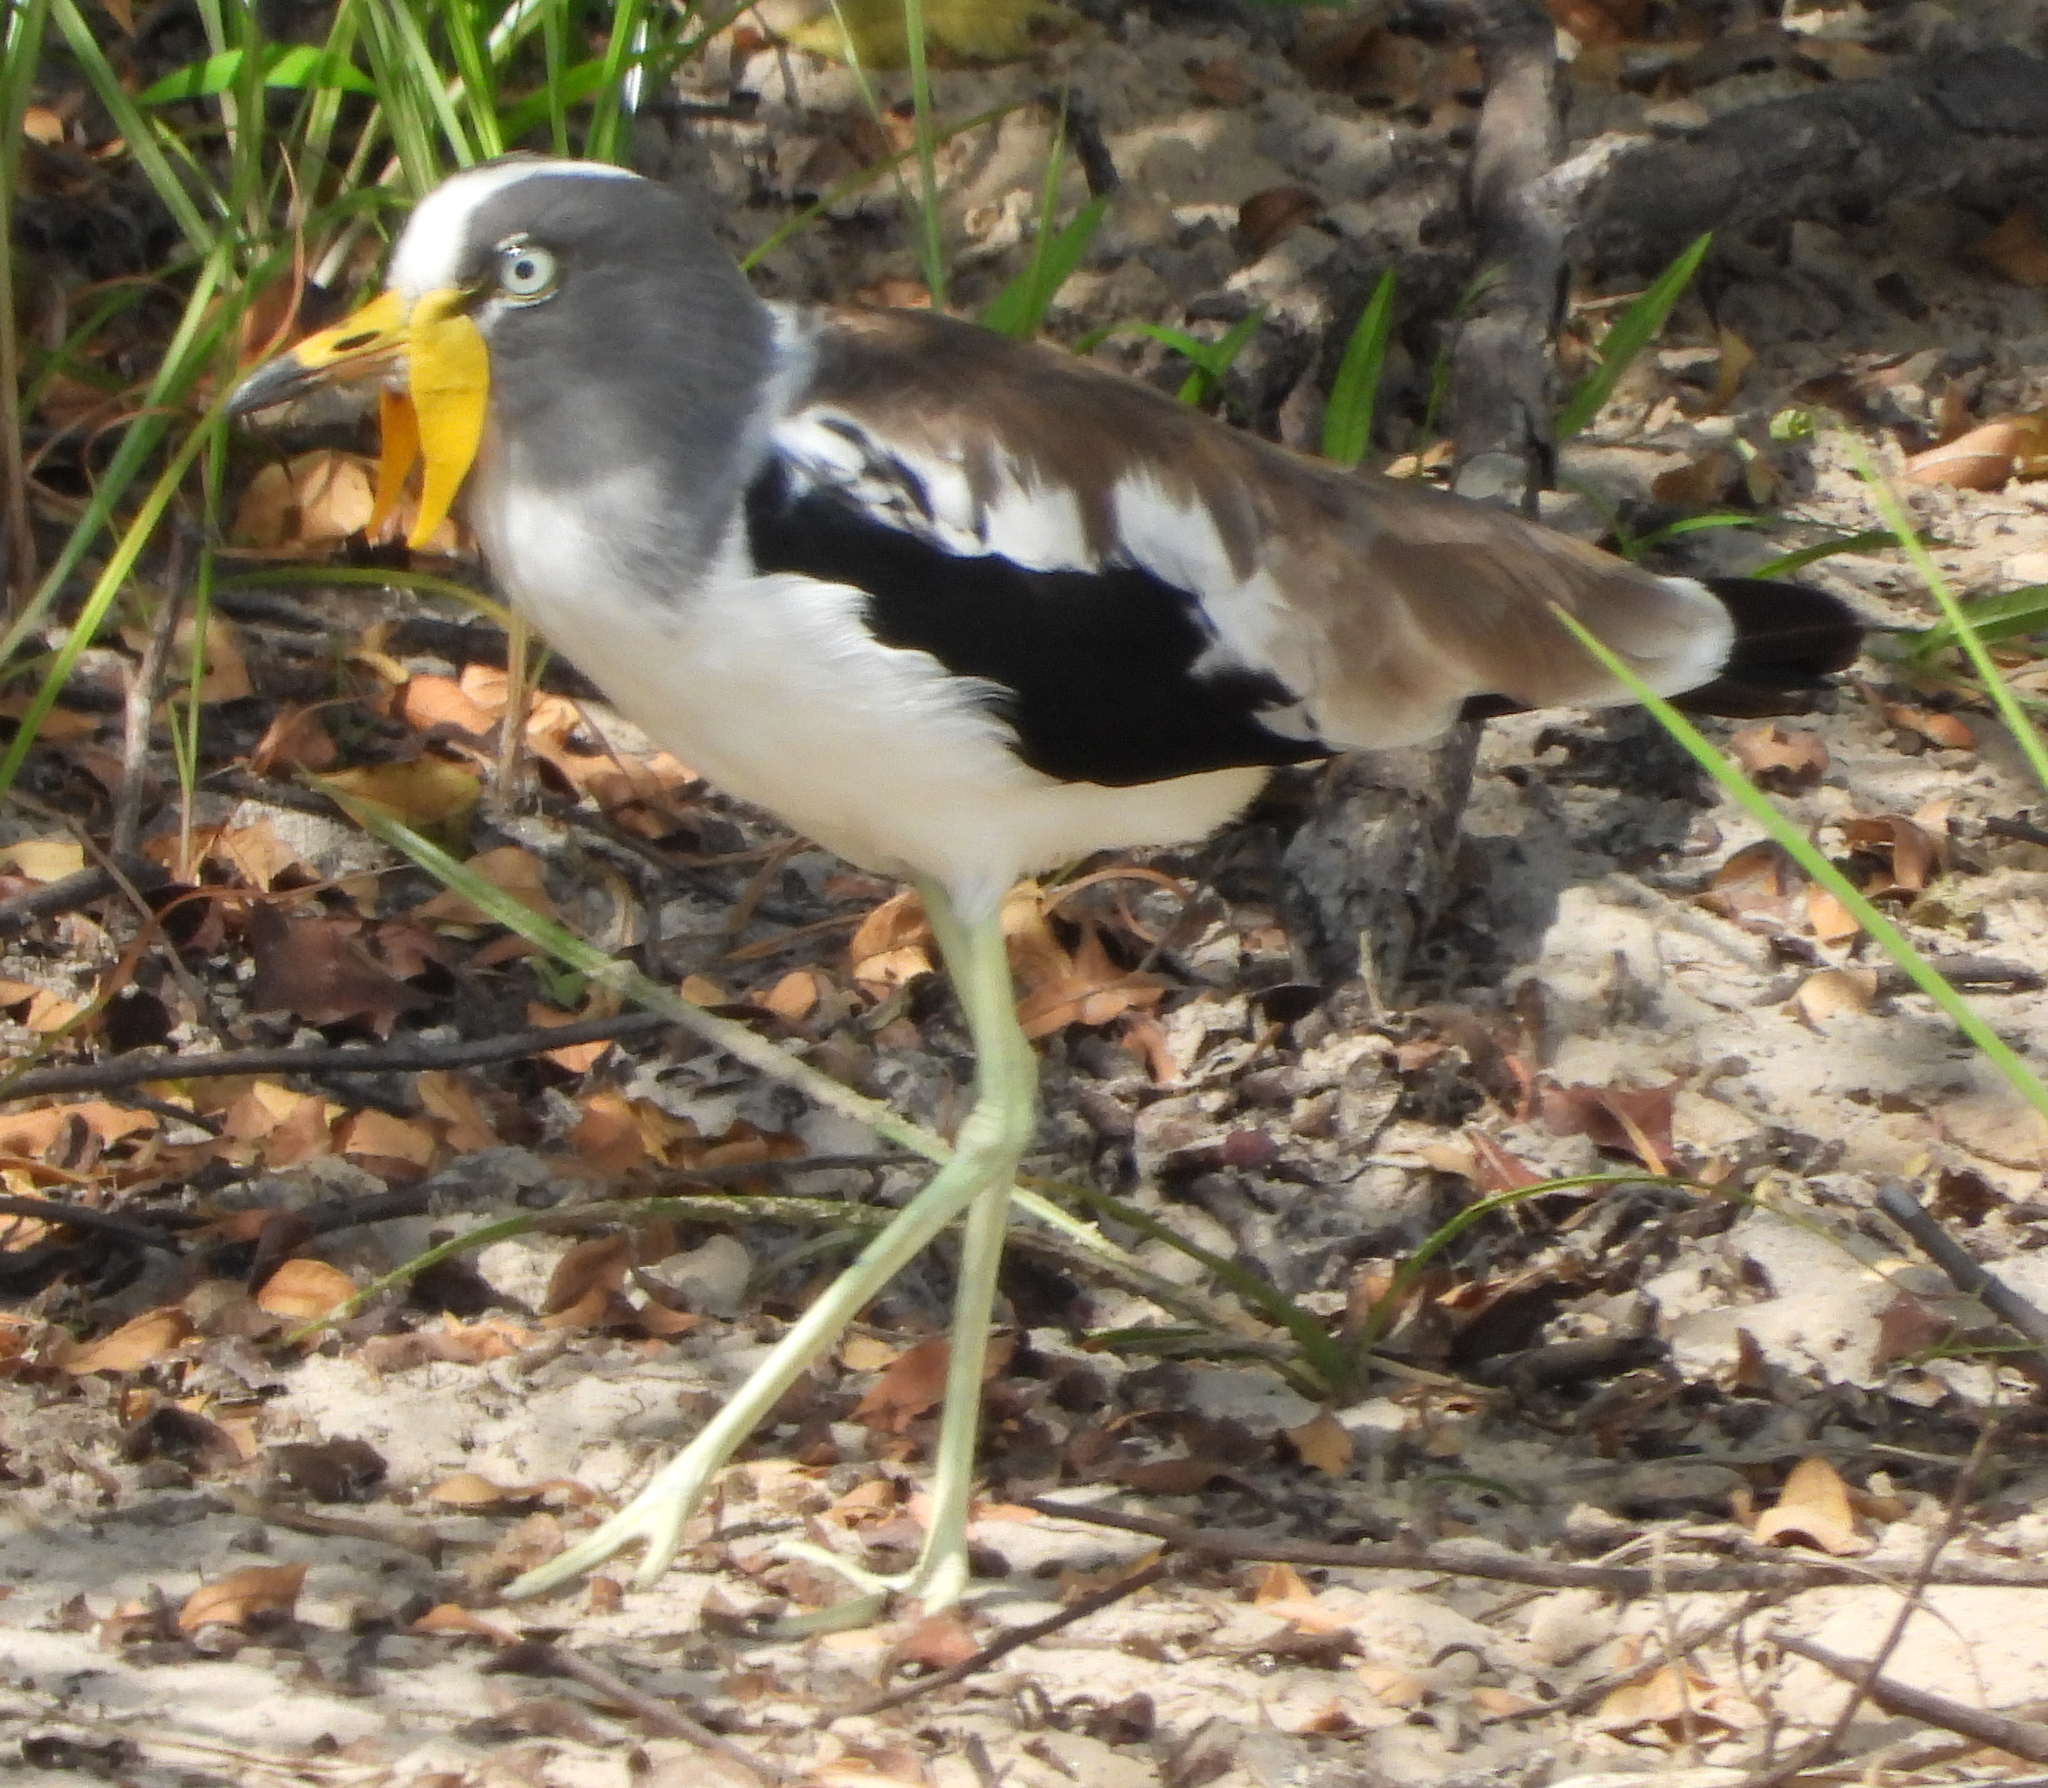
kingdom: Animalia
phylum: Chordata
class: Aves
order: Charadriiformes
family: Charadriidae
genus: Vanellus
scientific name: Vanellus albiceps
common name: White-crowned lapwing
